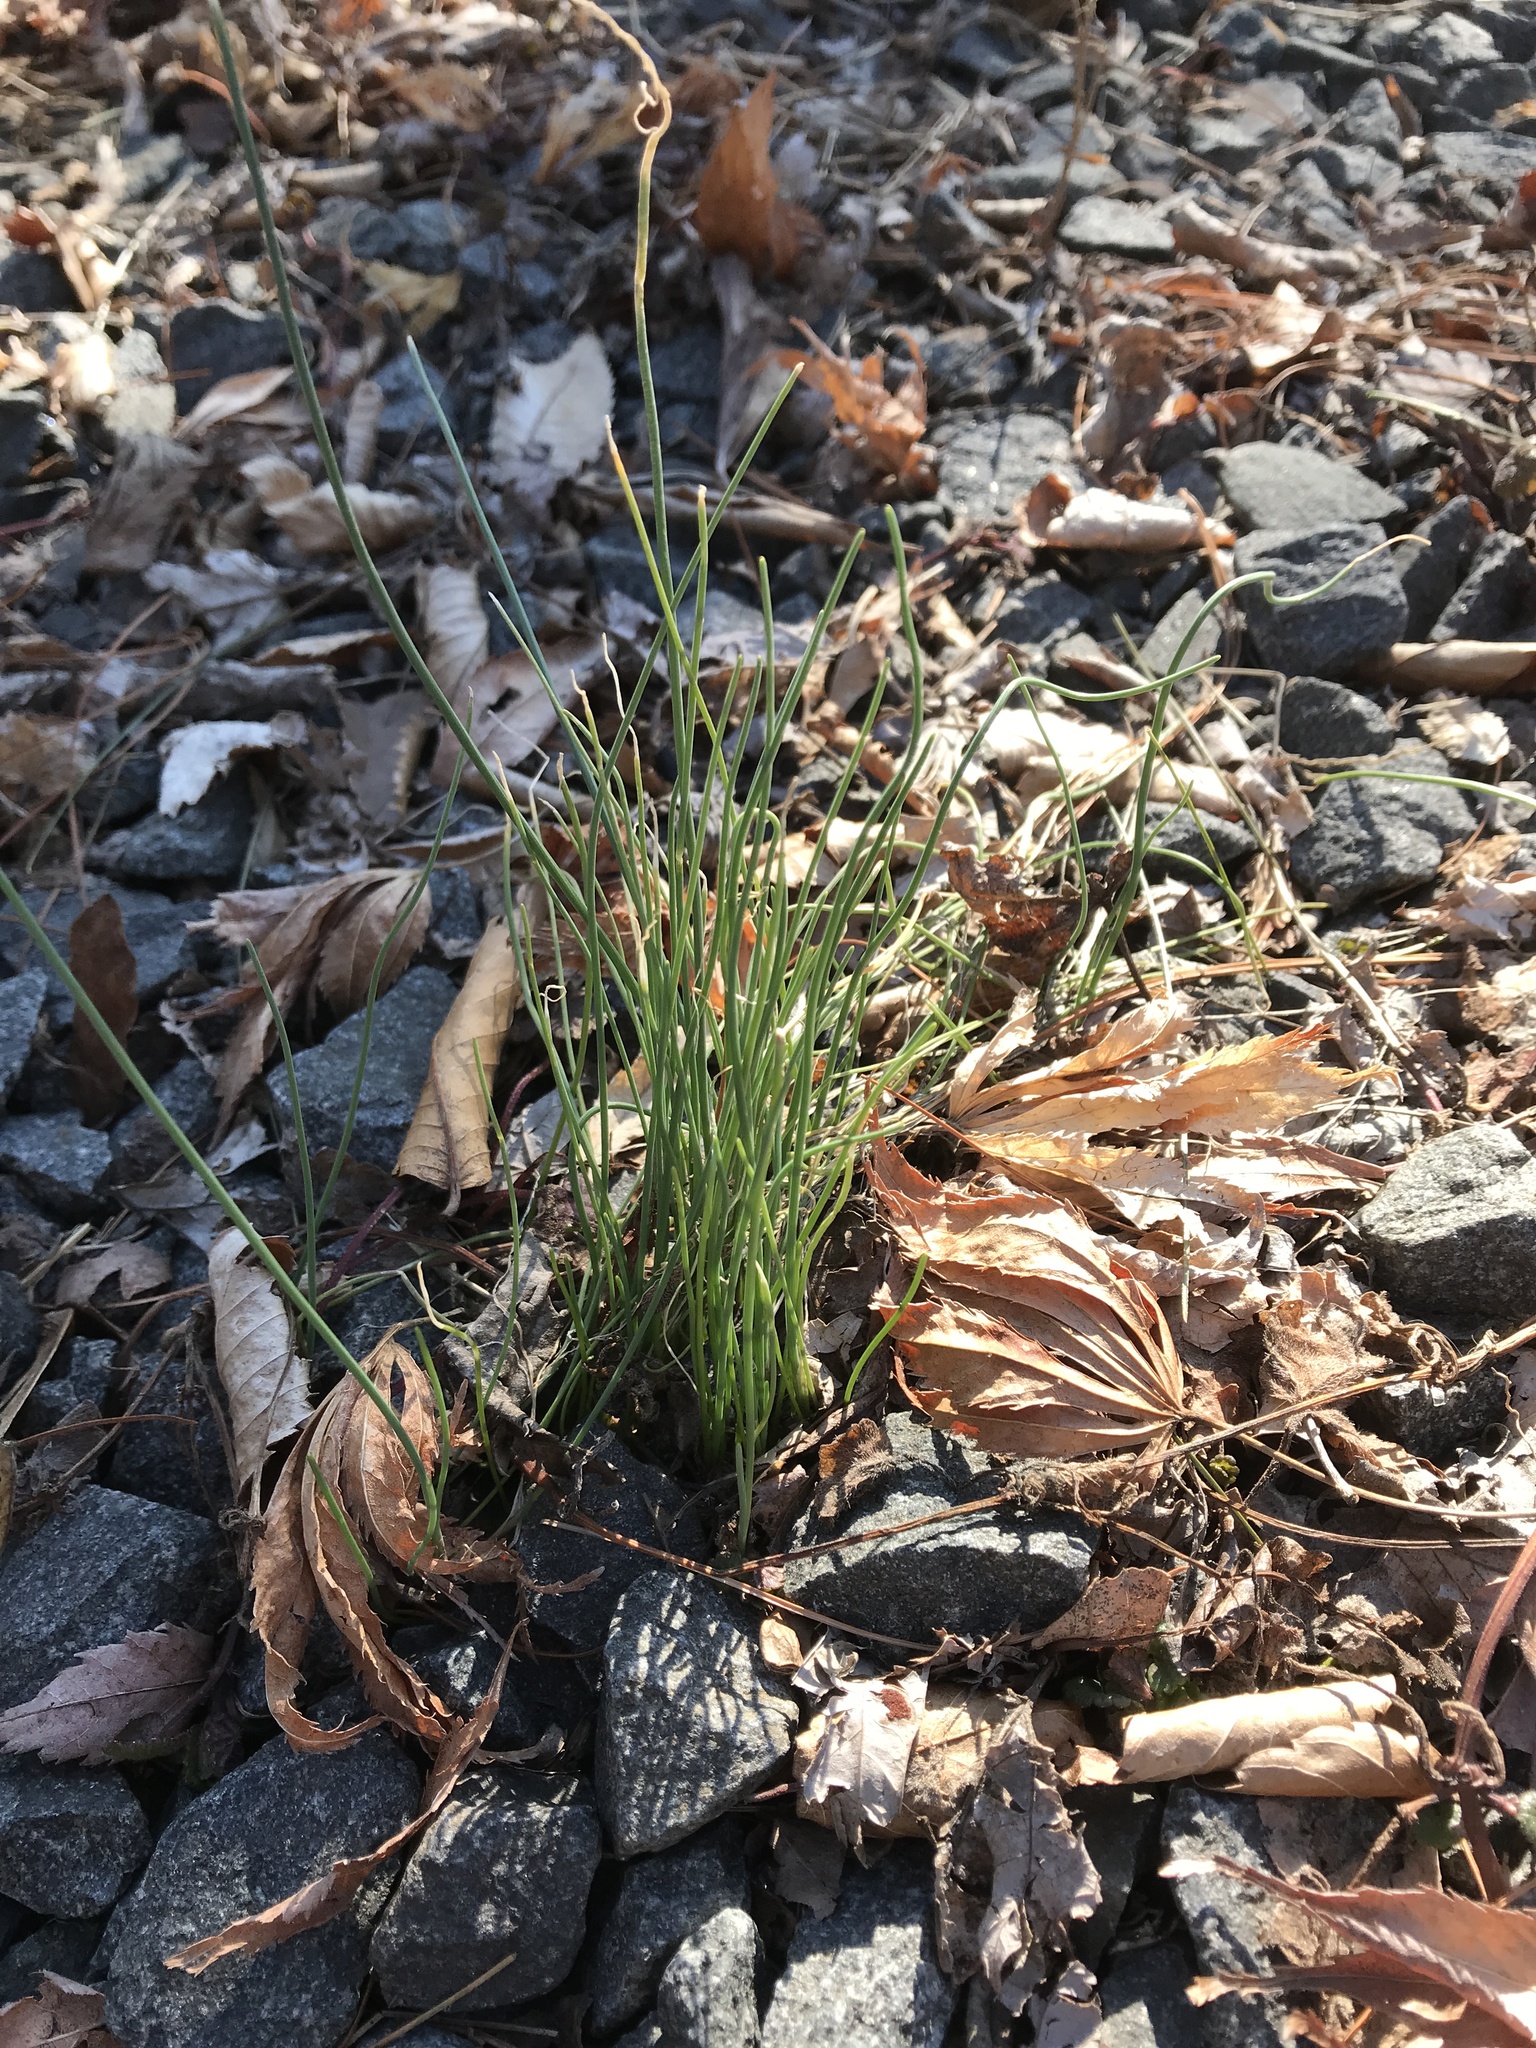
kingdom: Plantae
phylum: Tracheophyta
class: Liliopsida
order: Asparagales
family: Amaryllidaceae
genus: Allium
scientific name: Allium vineale
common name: Crow garlic
